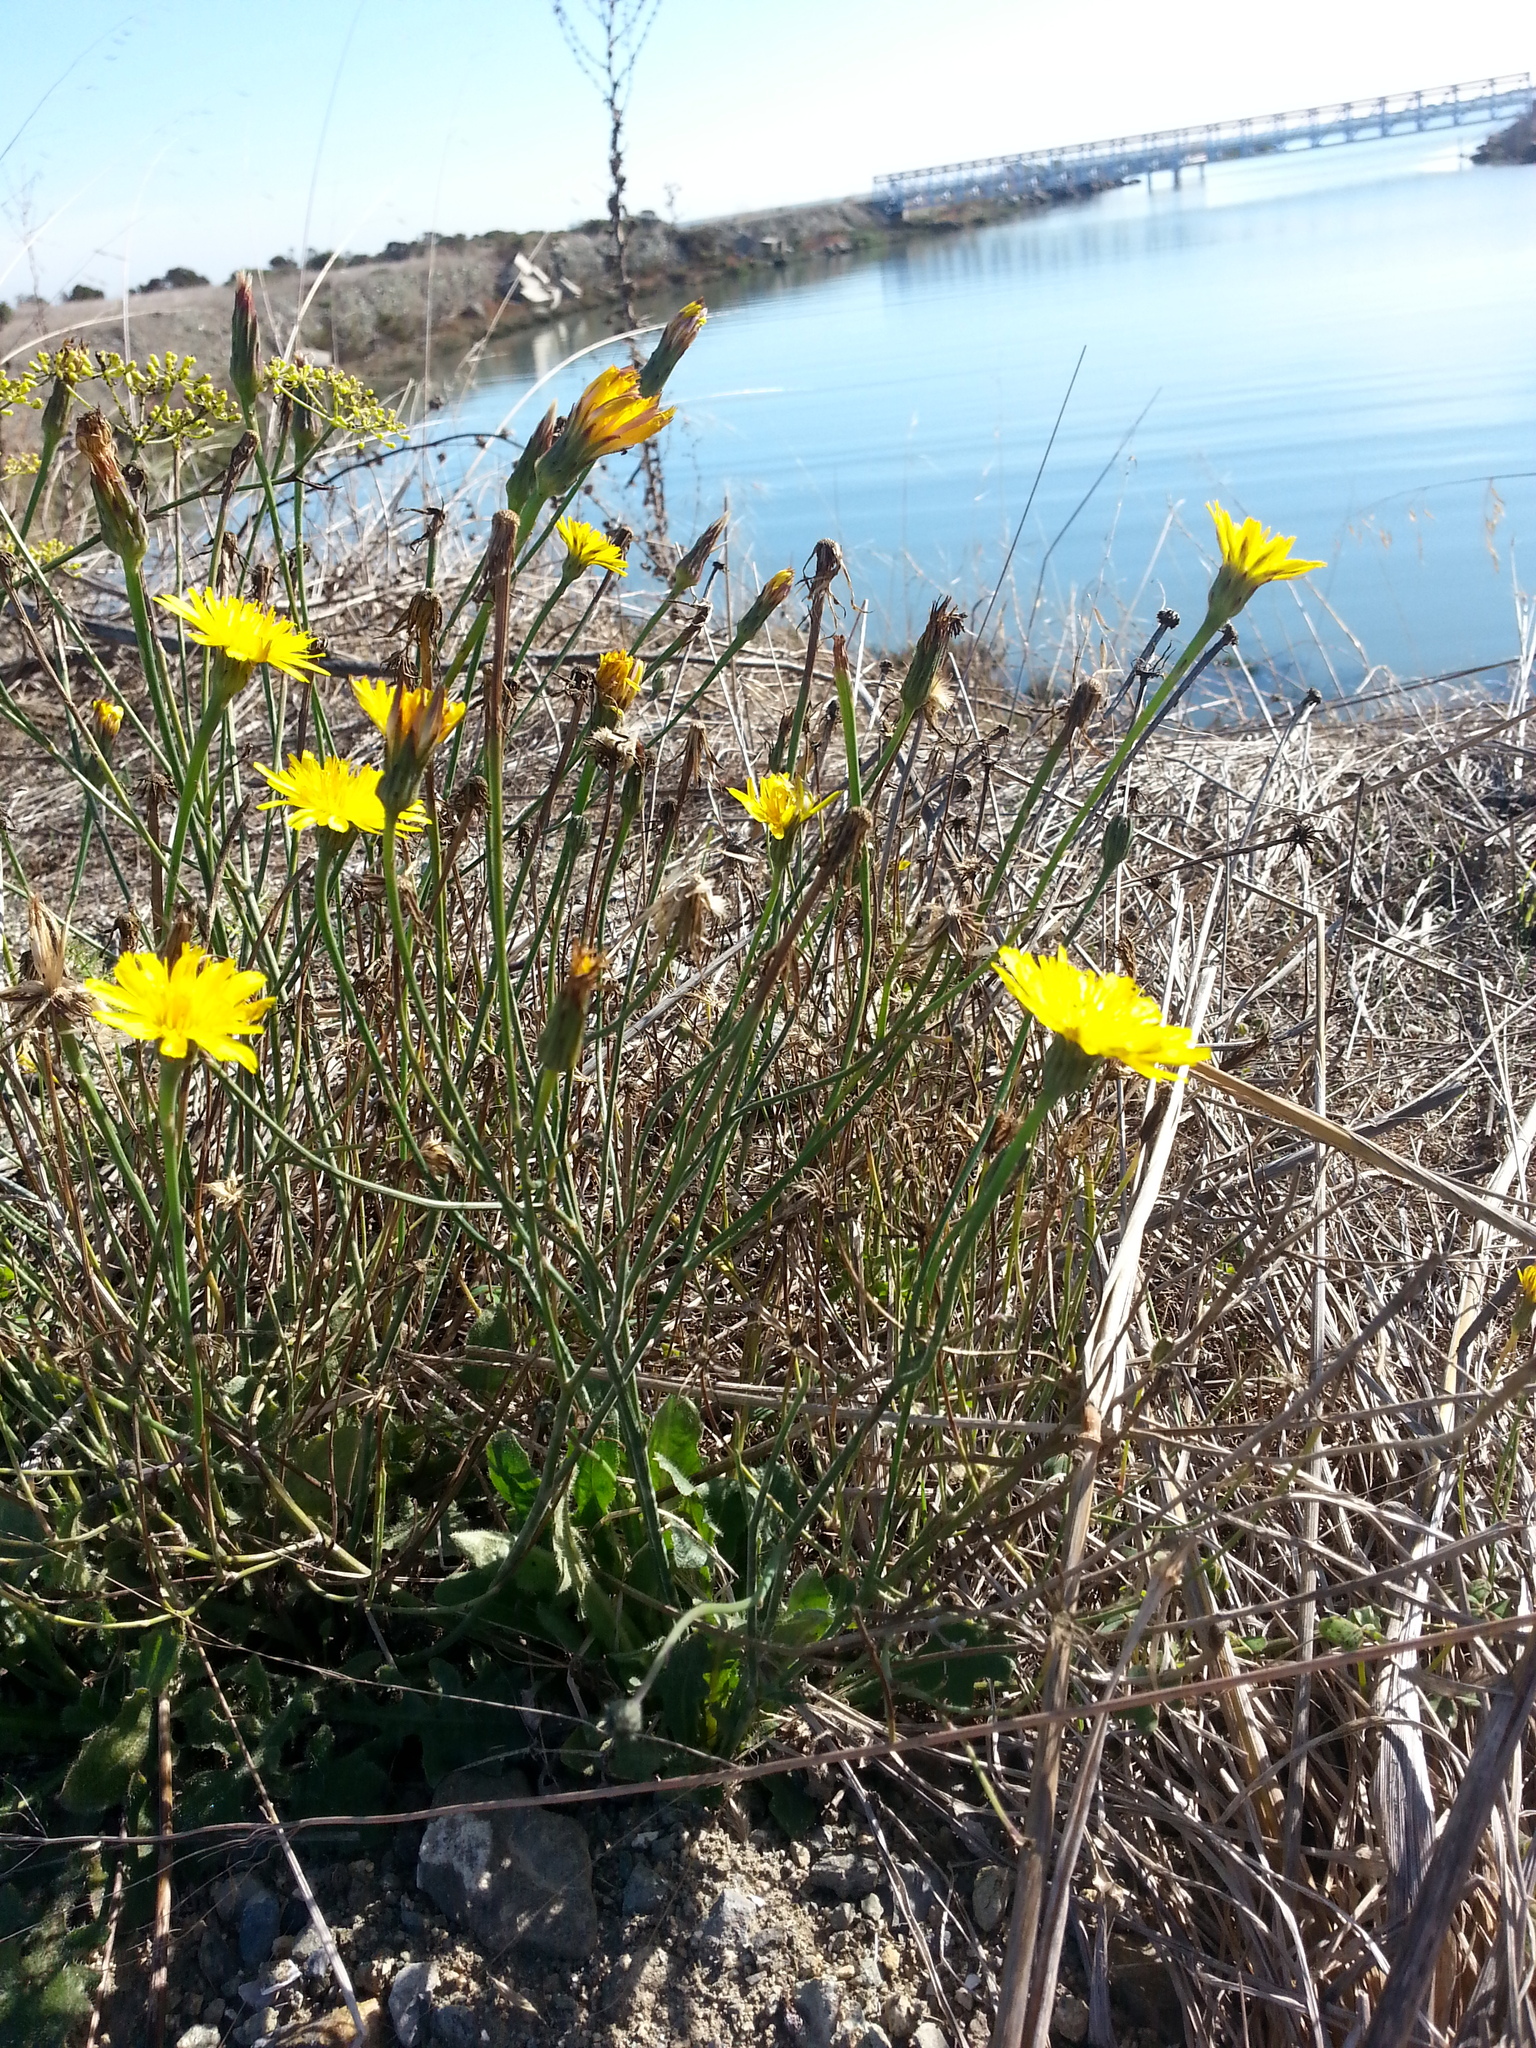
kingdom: Plantae
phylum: Tracheophyta
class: Magnoliopsida
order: Asterales
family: Asteraceae
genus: Hypochaeris
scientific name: Hypochaeris radicata
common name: Flatweed
